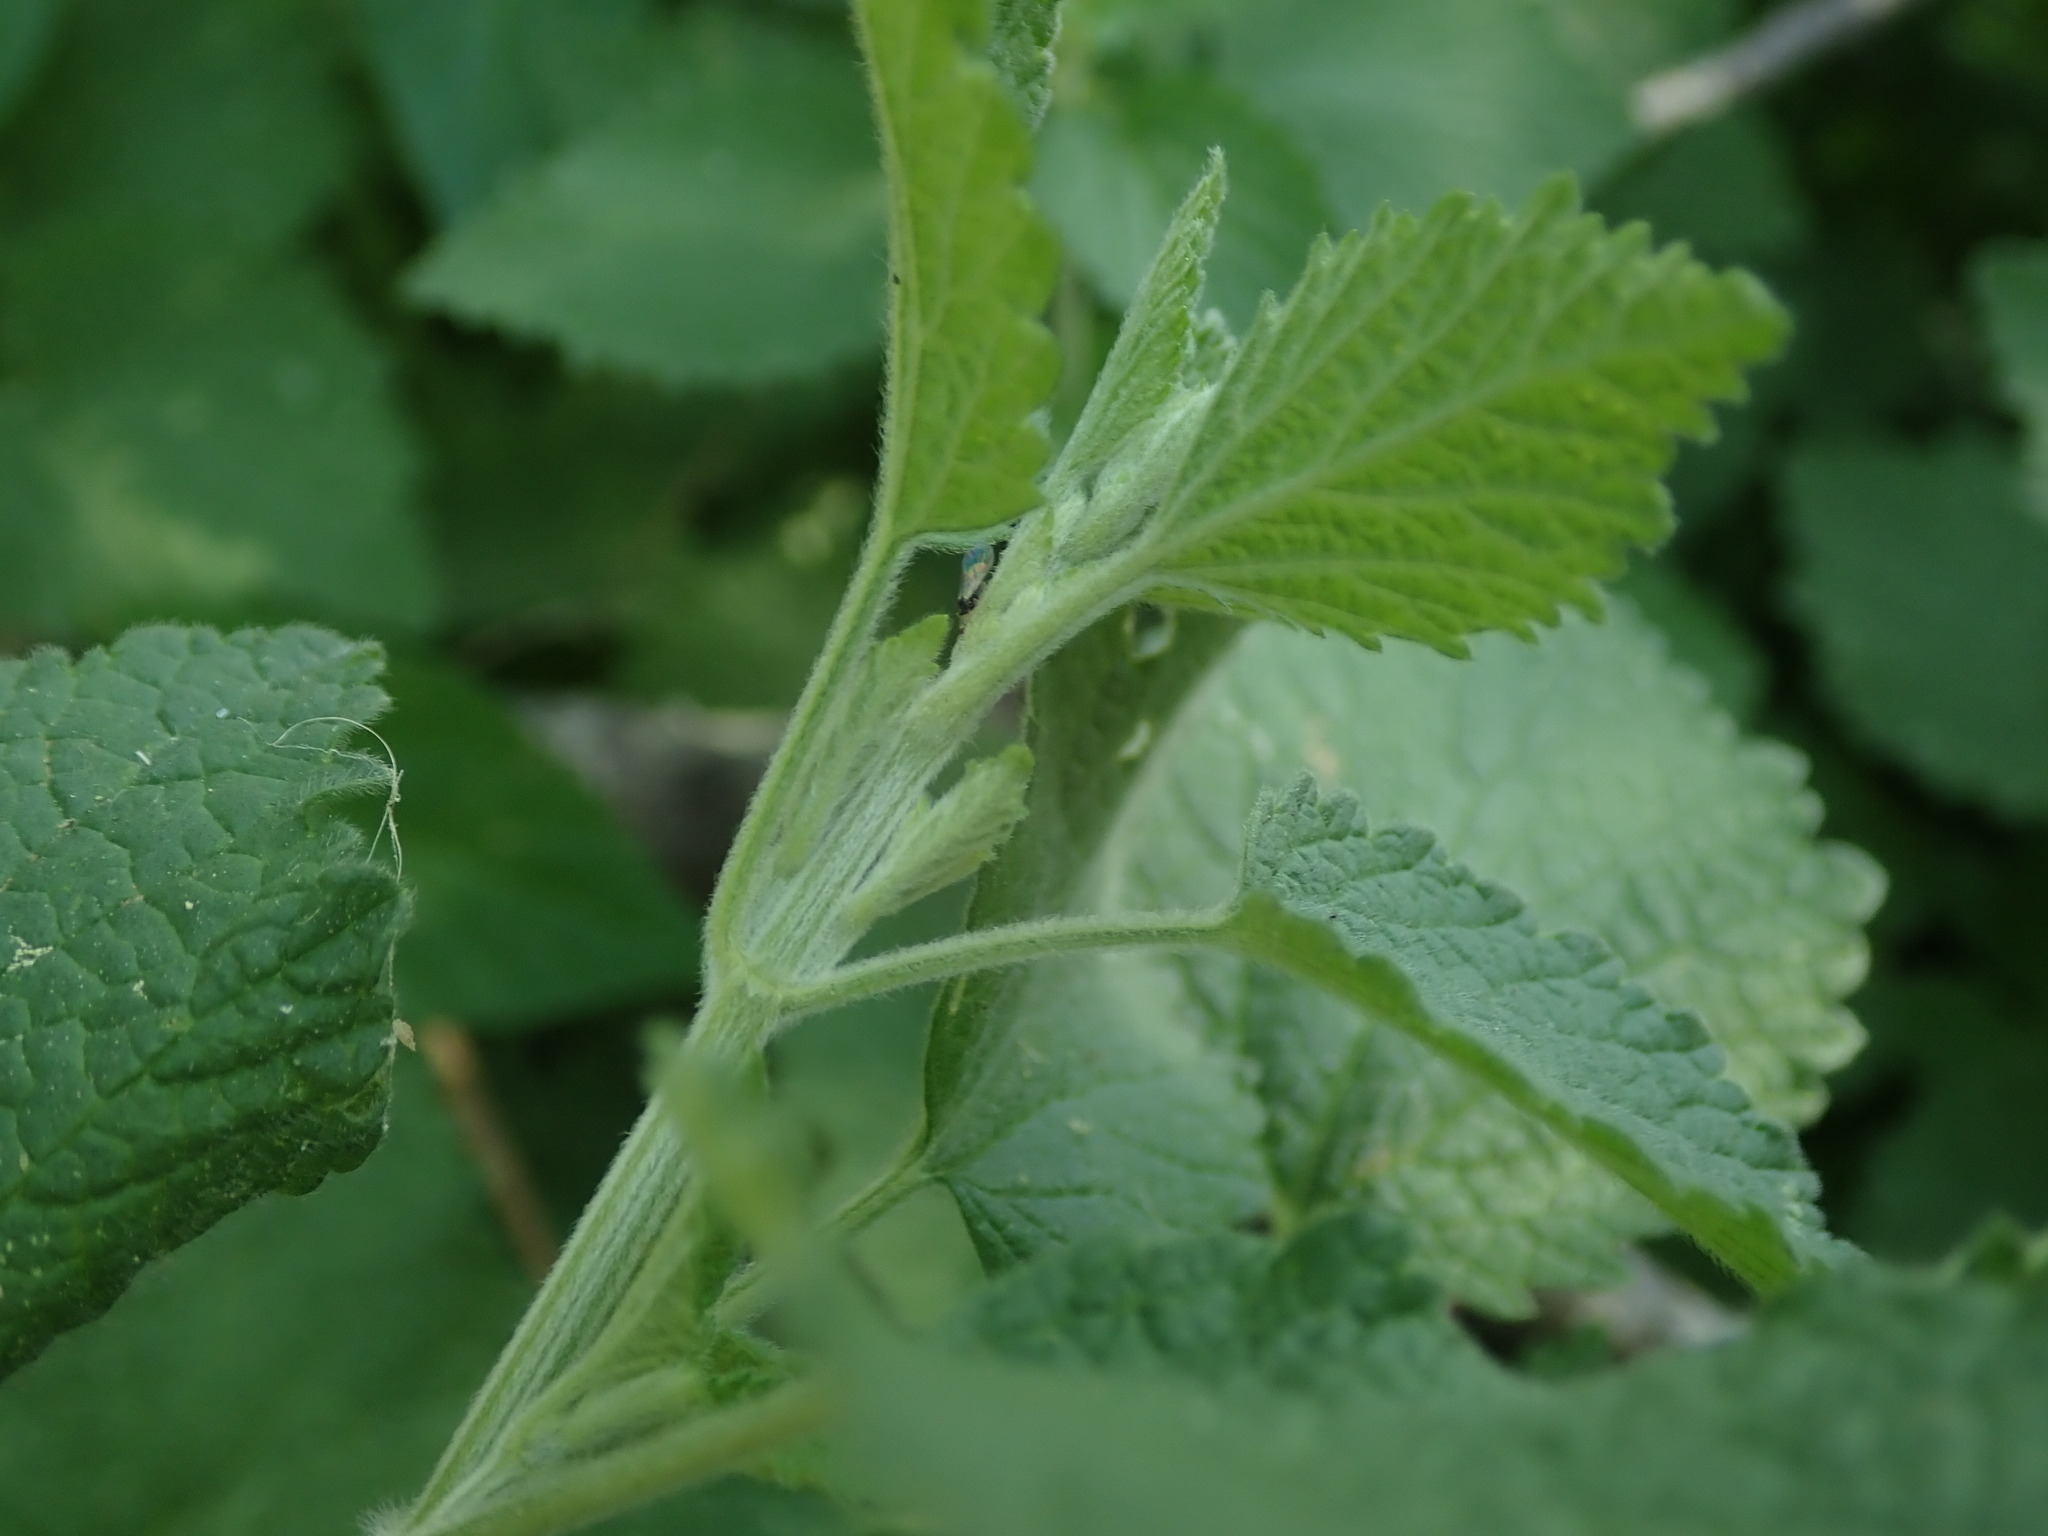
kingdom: Plantae
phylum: Tracheophyta
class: Magnoliopsida
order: Lamiales
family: Lamiaceae
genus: Ballota
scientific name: Ballota nigra
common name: Black horehound
